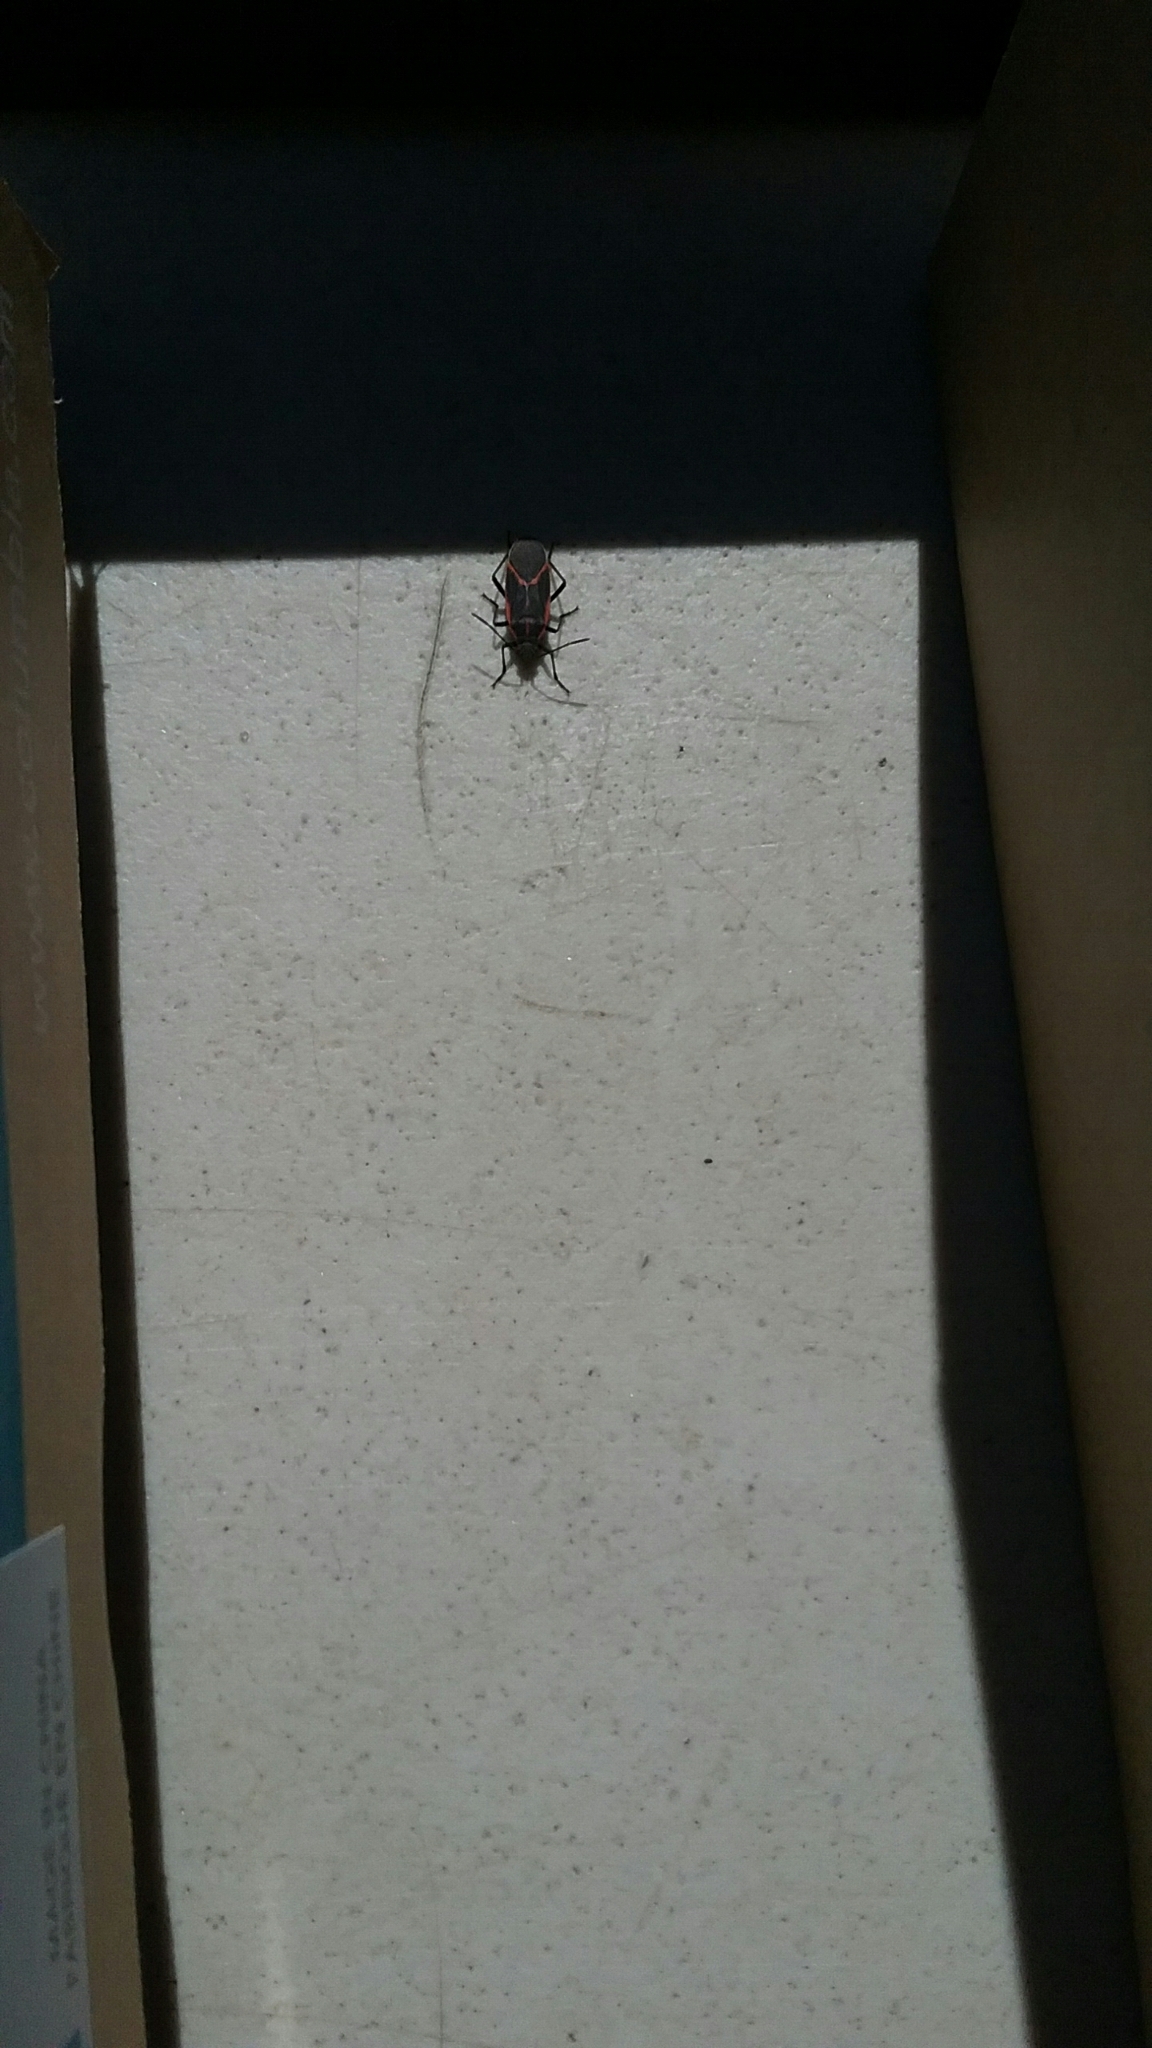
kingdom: Animalia
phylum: Arthropoda
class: Insecta
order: Hemiptera
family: Rhopalidae
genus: Boisea
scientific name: Boisea trivittata
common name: Boxelder bug
